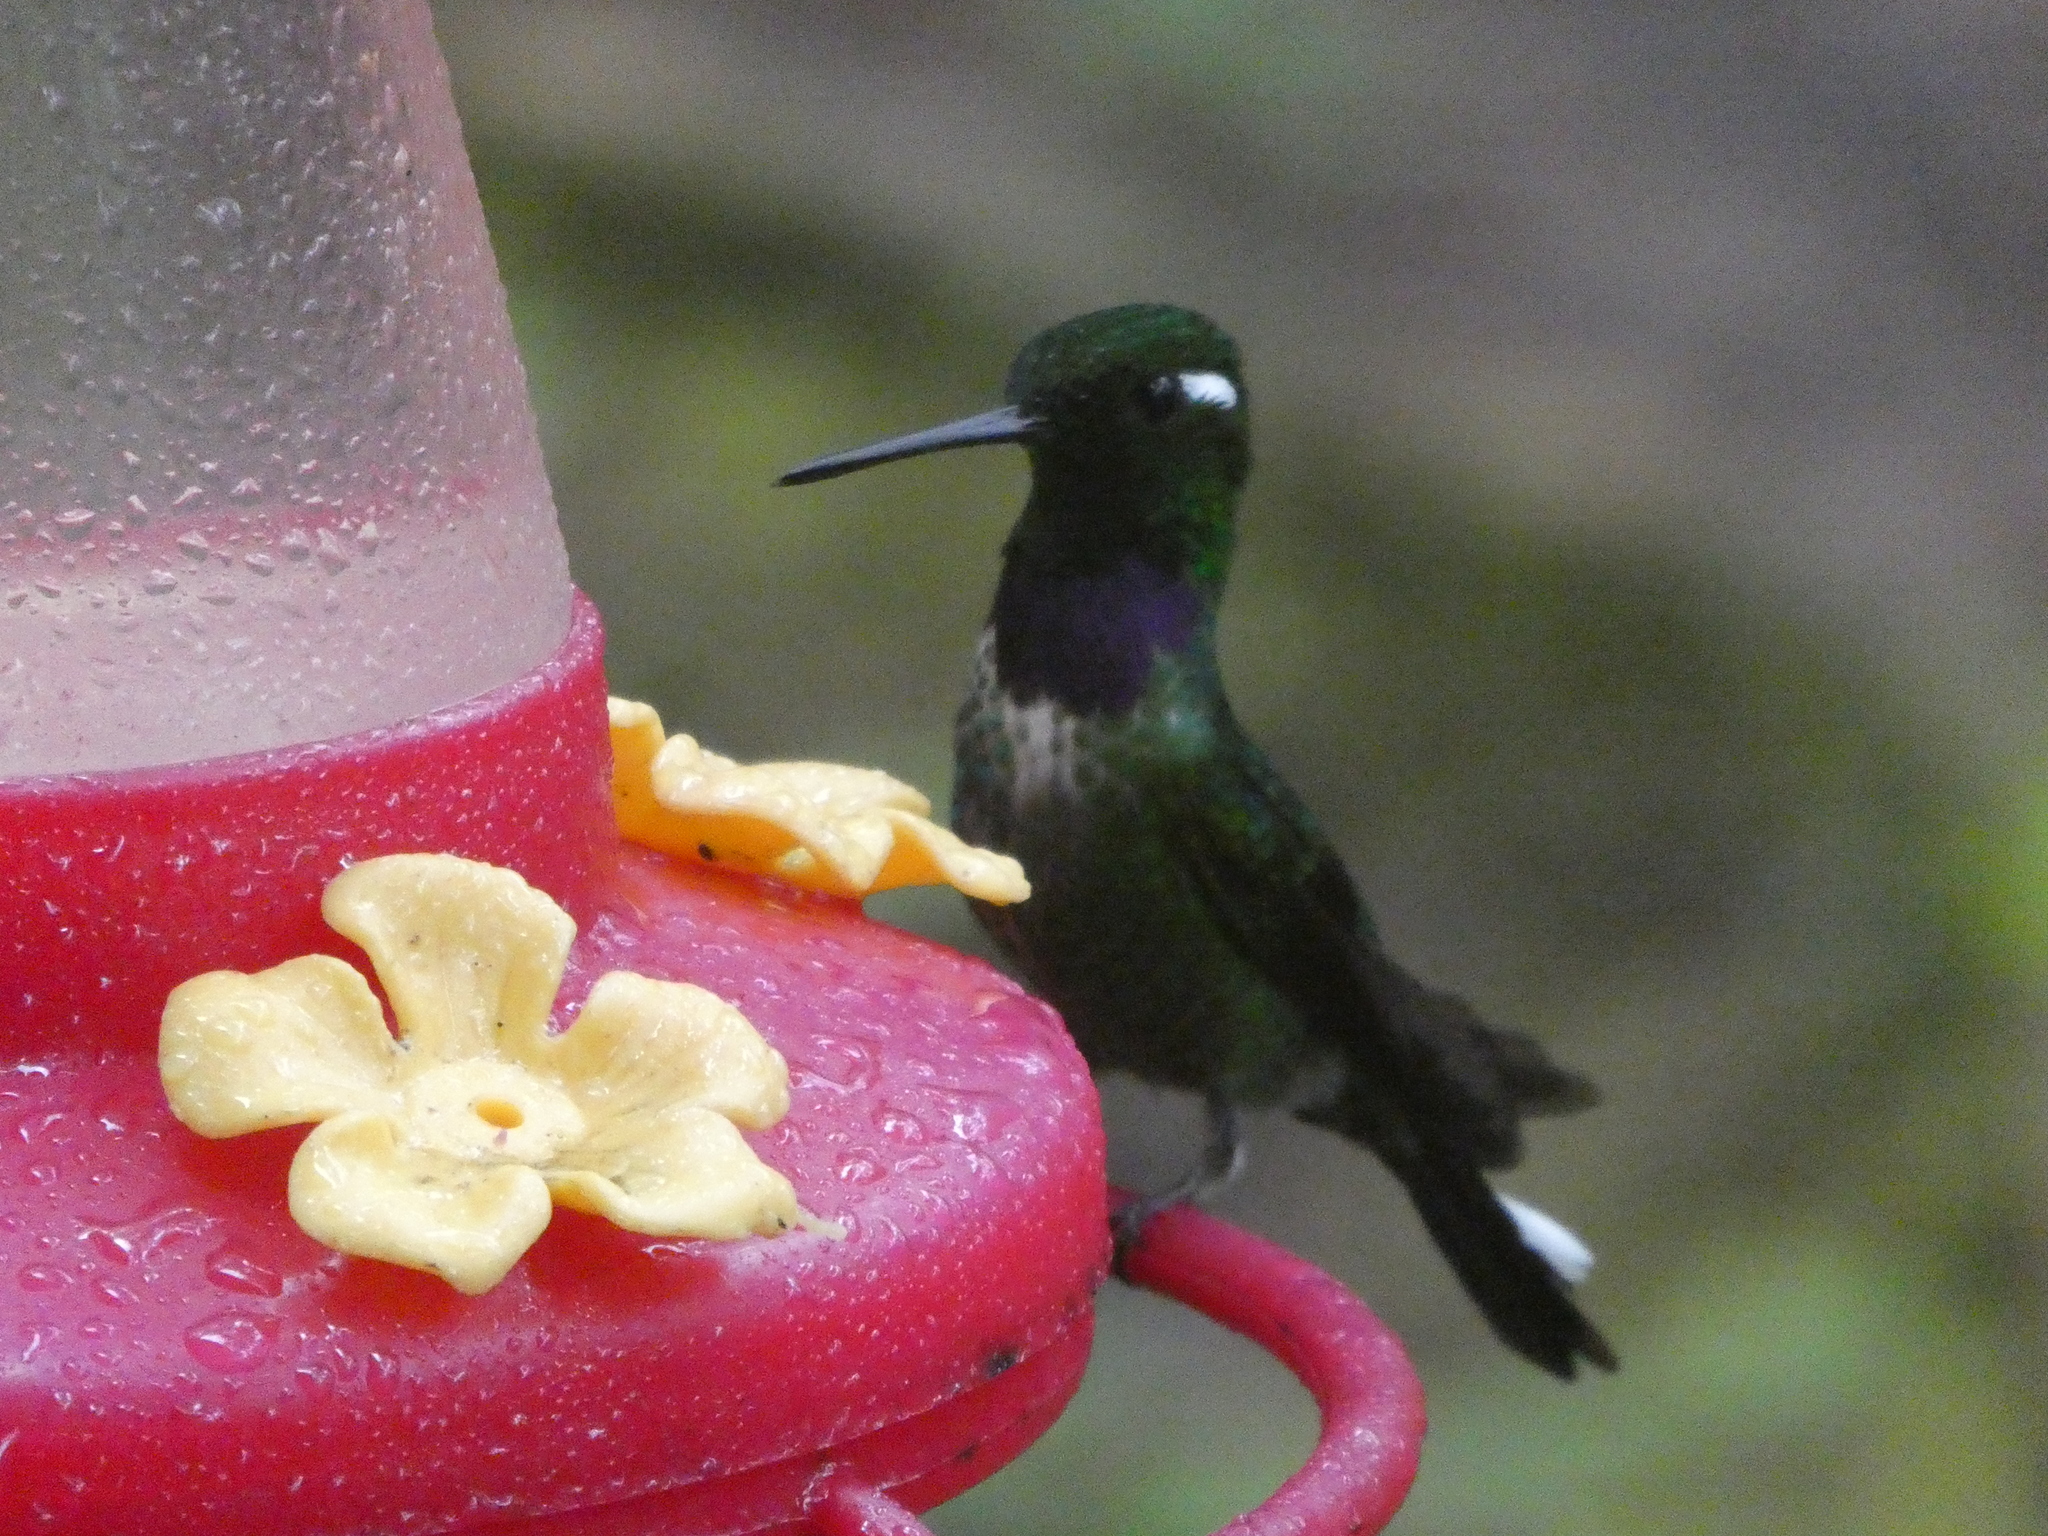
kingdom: Animalia
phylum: Chordata
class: Aves
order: Apodiformes
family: Trochilidae
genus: Urosticte
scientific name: Urosticte benjamini
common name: Purple-bibbed whitetip
